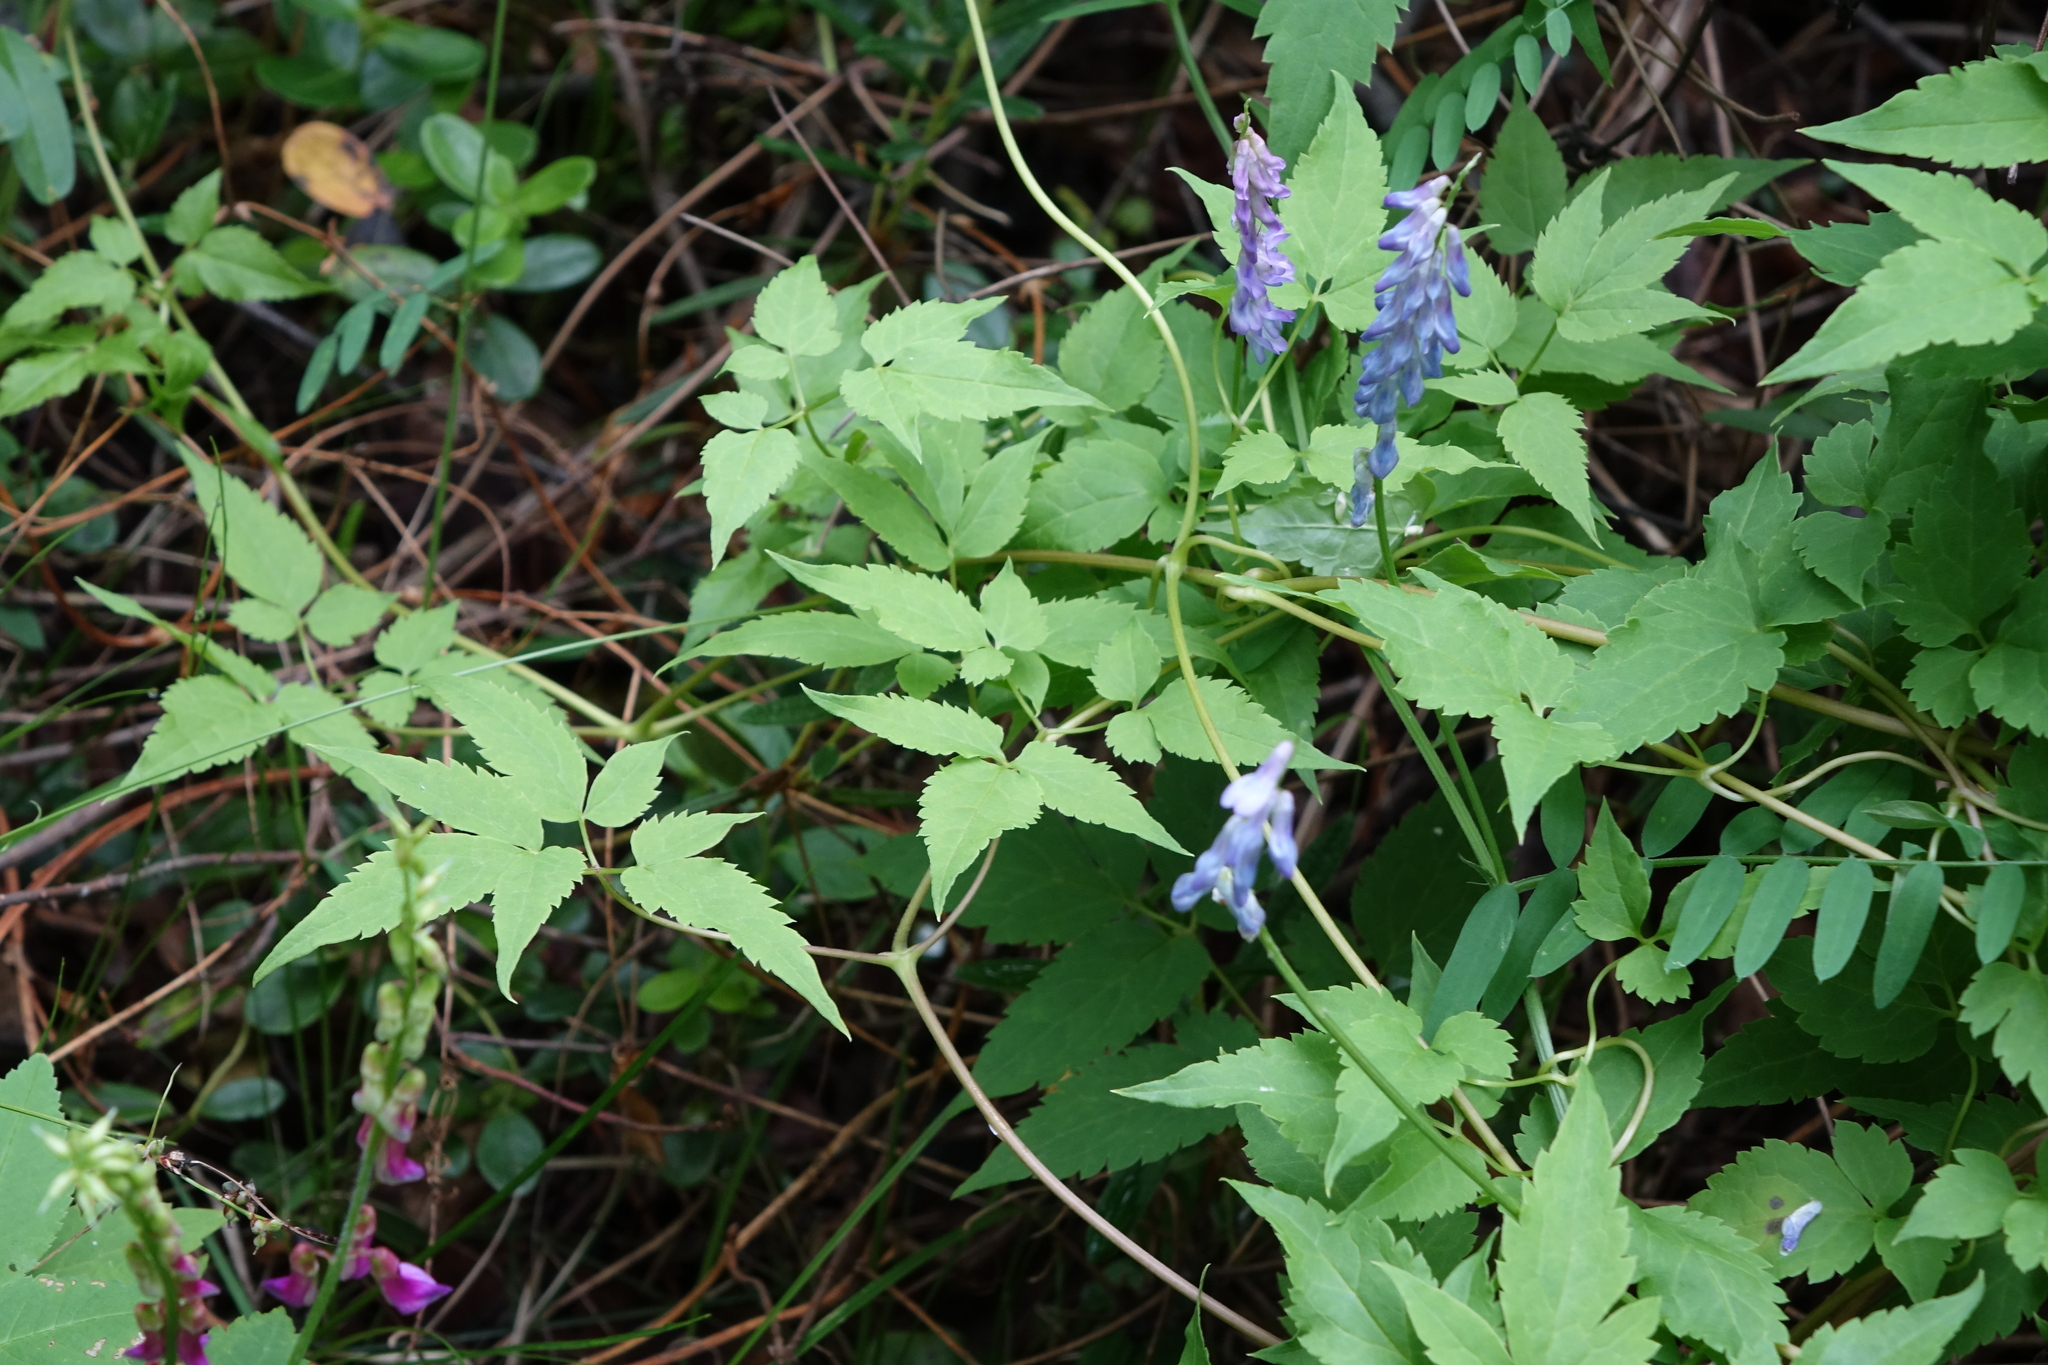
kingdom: Plantae
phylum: Tracheophyta
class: Magnoliopsida
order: Fabales
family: Fabaceae
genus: Vicia
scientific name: Vicia cracca
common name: Bird vetch
